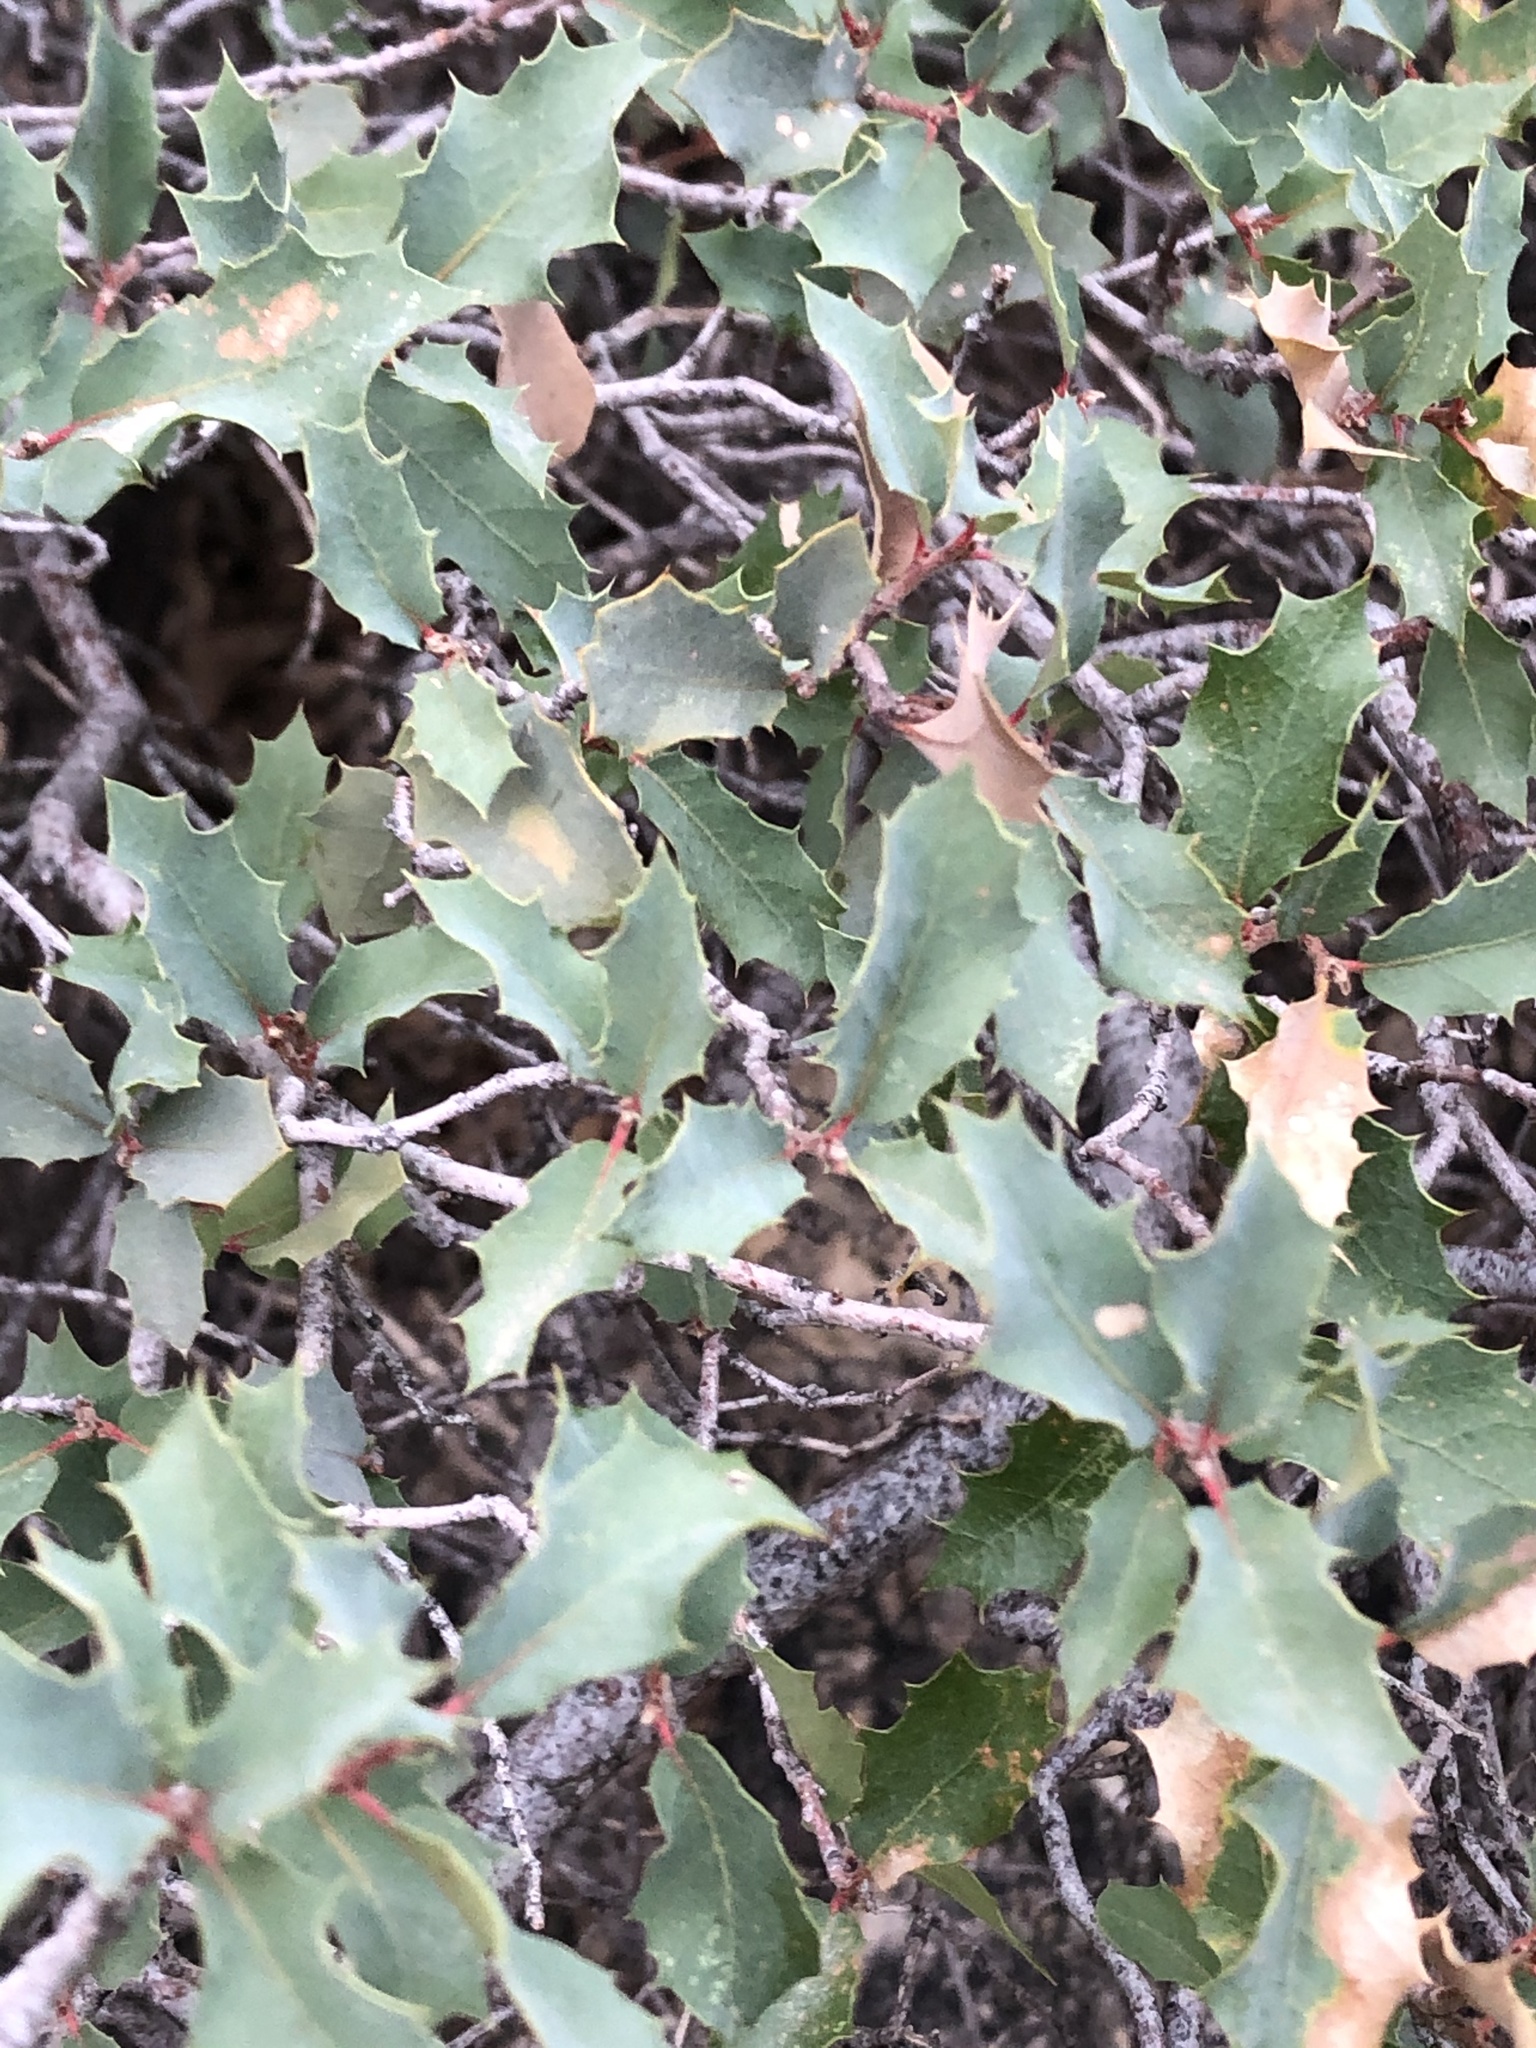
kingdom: Plantae
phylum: Tracheophyta
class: Magnoliopsida
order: Fagales
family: Fagaceae
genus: Quercus
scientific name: Quercus turbinella
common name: Sonoran scrub oak
